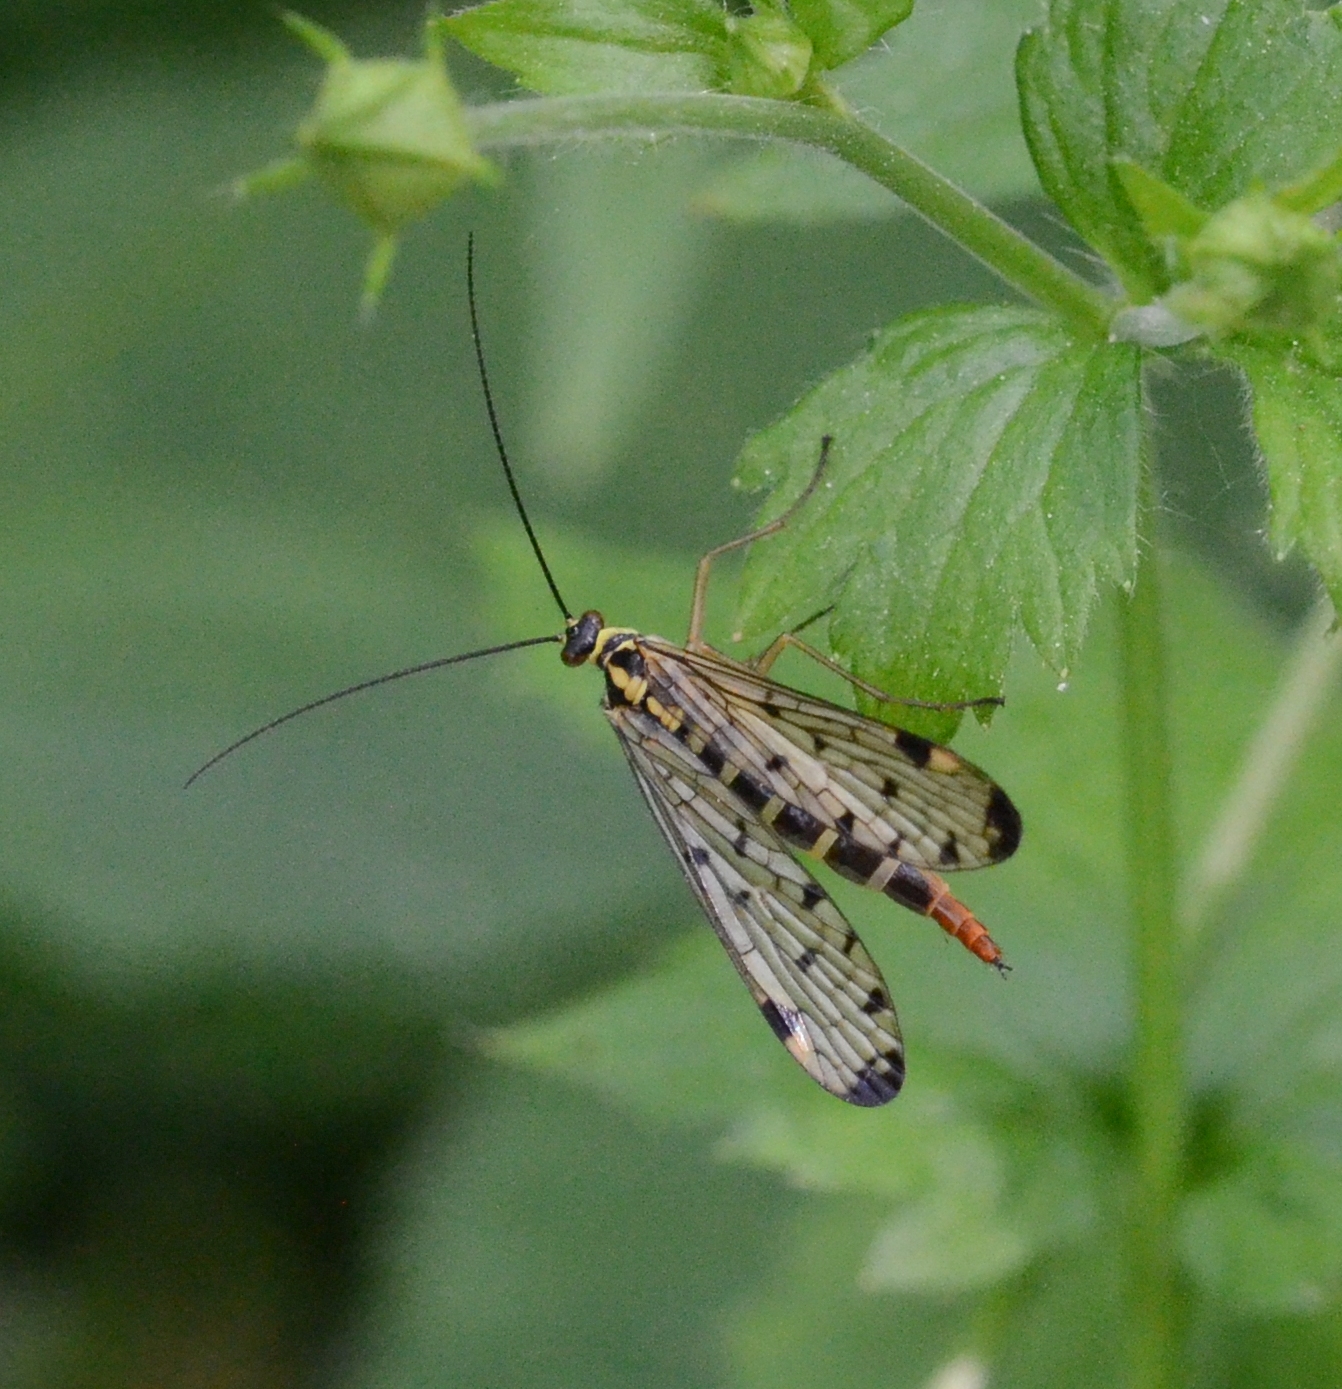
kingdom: Animalia
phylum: Arthropoda
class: Insecta
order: Mecoptera
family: Panorpidae
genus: Panorpa
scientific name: Panorpa germanica
